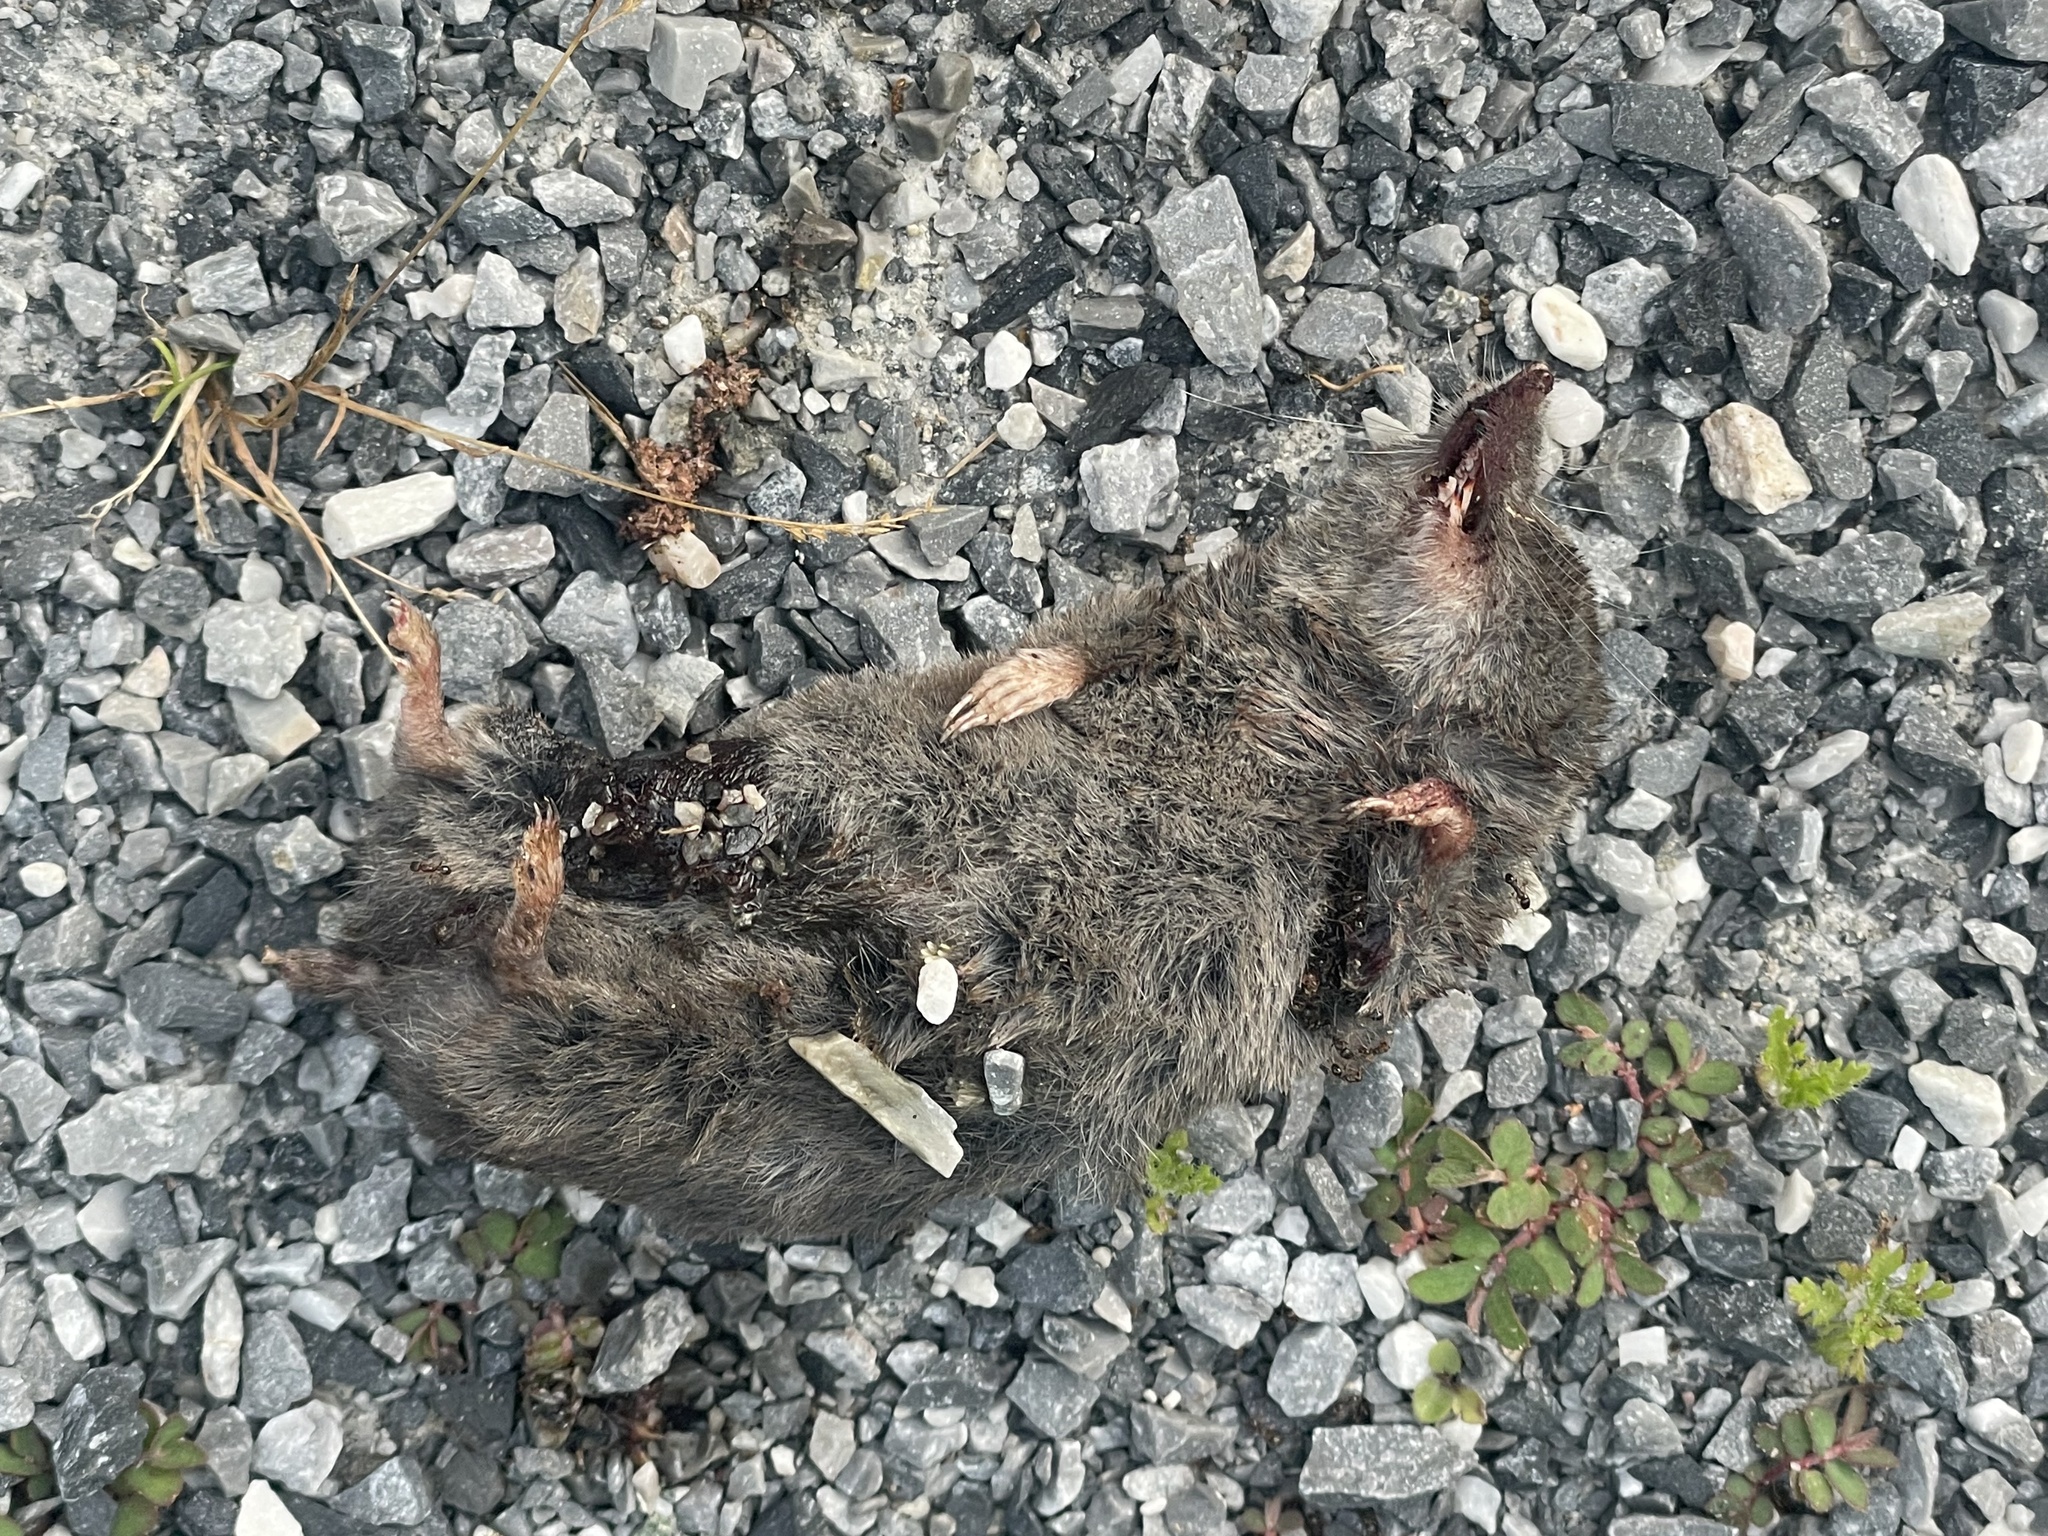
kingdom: Animalia
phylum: Chordata
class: Mammalia
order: Soricomorpha
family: Soricidae
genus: Blarina
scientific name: Blarina brevicauda
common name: Northern short-tailed shrew
